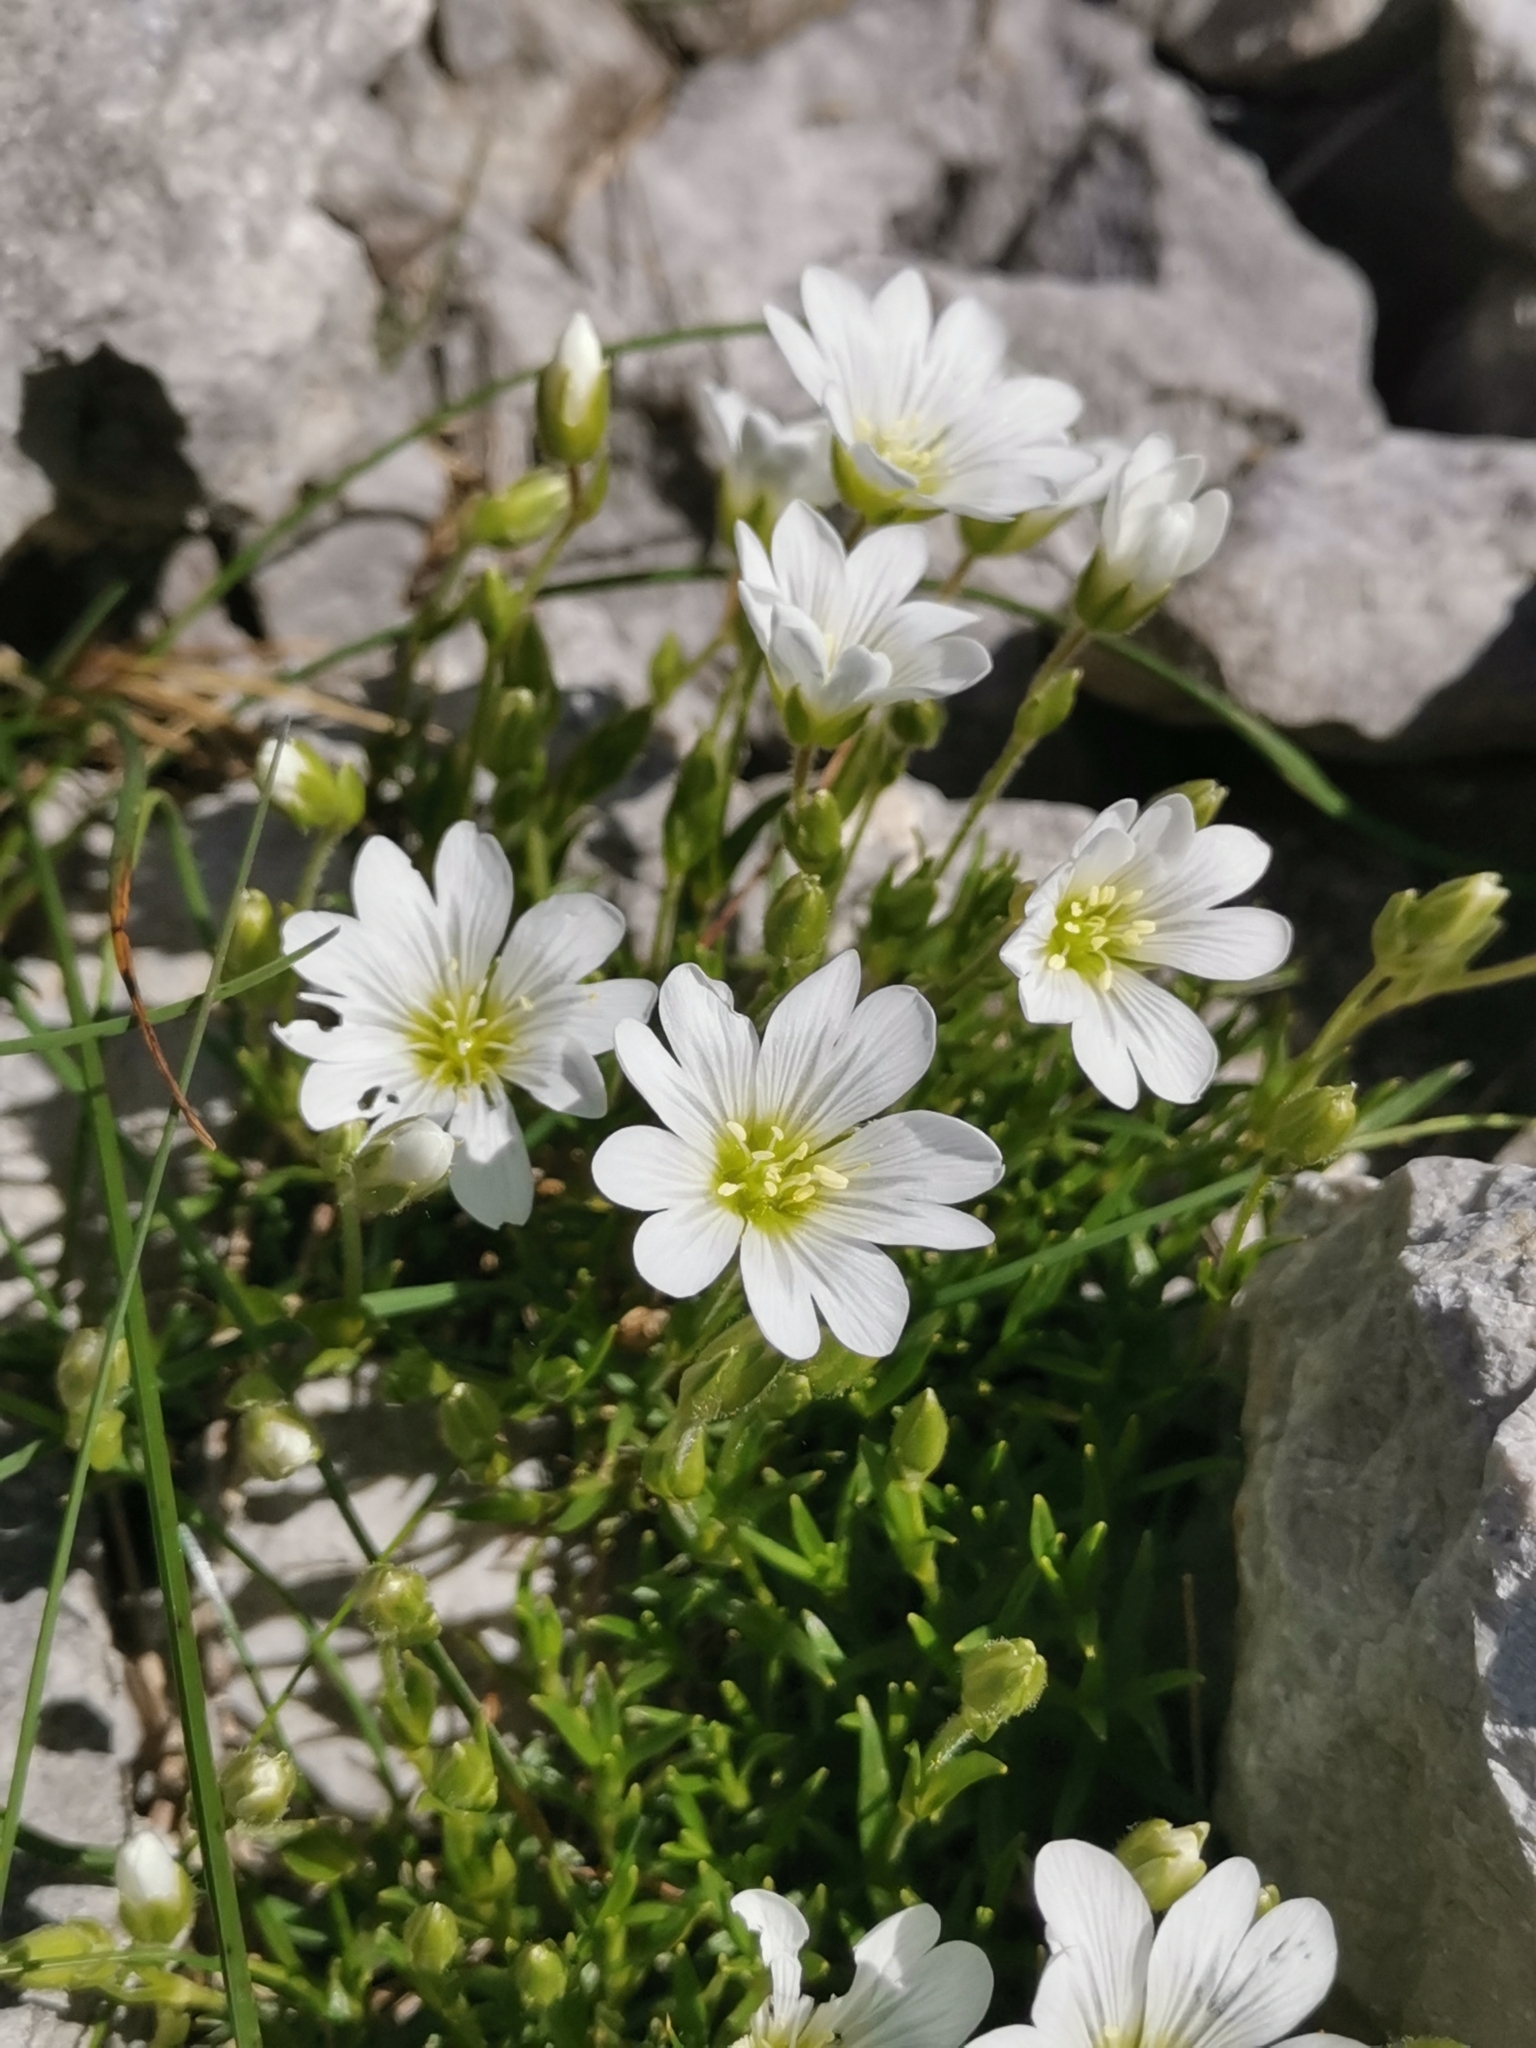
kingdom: Plantae
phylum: Tracheophyta
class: Magnoliopsida
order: Caryophyllales
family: Caryophyllaceae
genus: Cerastium
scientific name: Cerastium julicum
